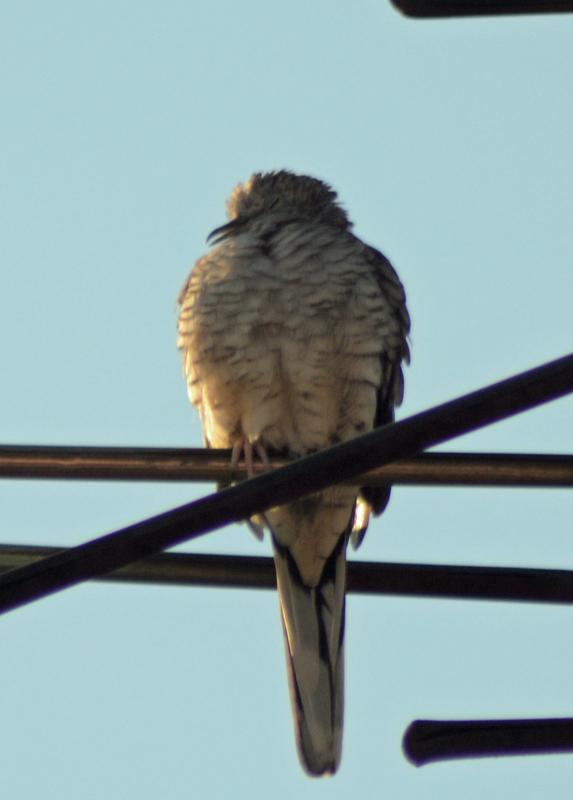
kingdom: Animalia
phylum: Chordata
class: Aves
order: Columbiformes
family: Columbidae
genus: Columbina
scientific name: Columbina inca
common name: Inca dove
